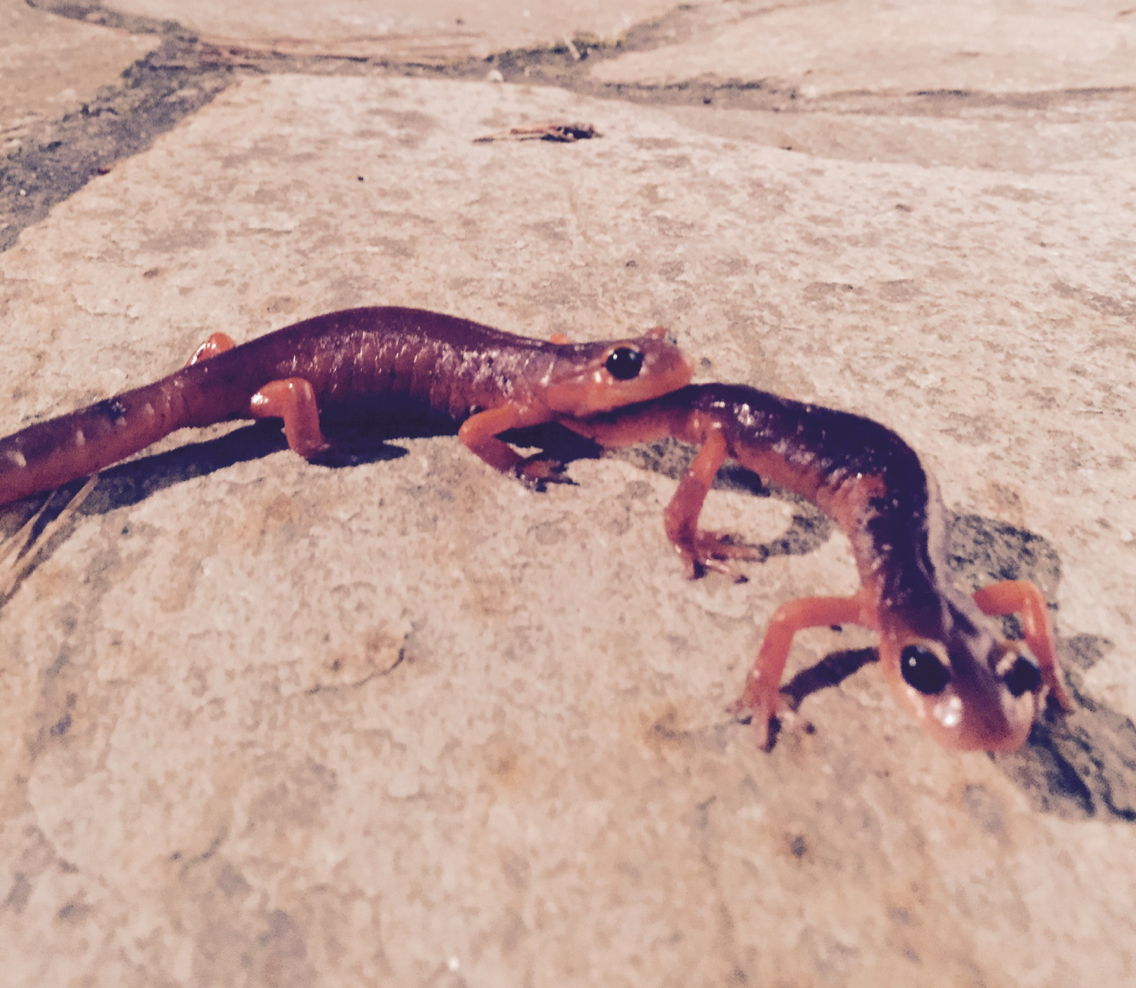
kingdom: Animalia
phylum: Chordata
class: Amphibia
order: Caudata
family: Plethodontidae
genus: Ensatina
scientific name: Ensatina eschscholtzii
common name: Ensatina
